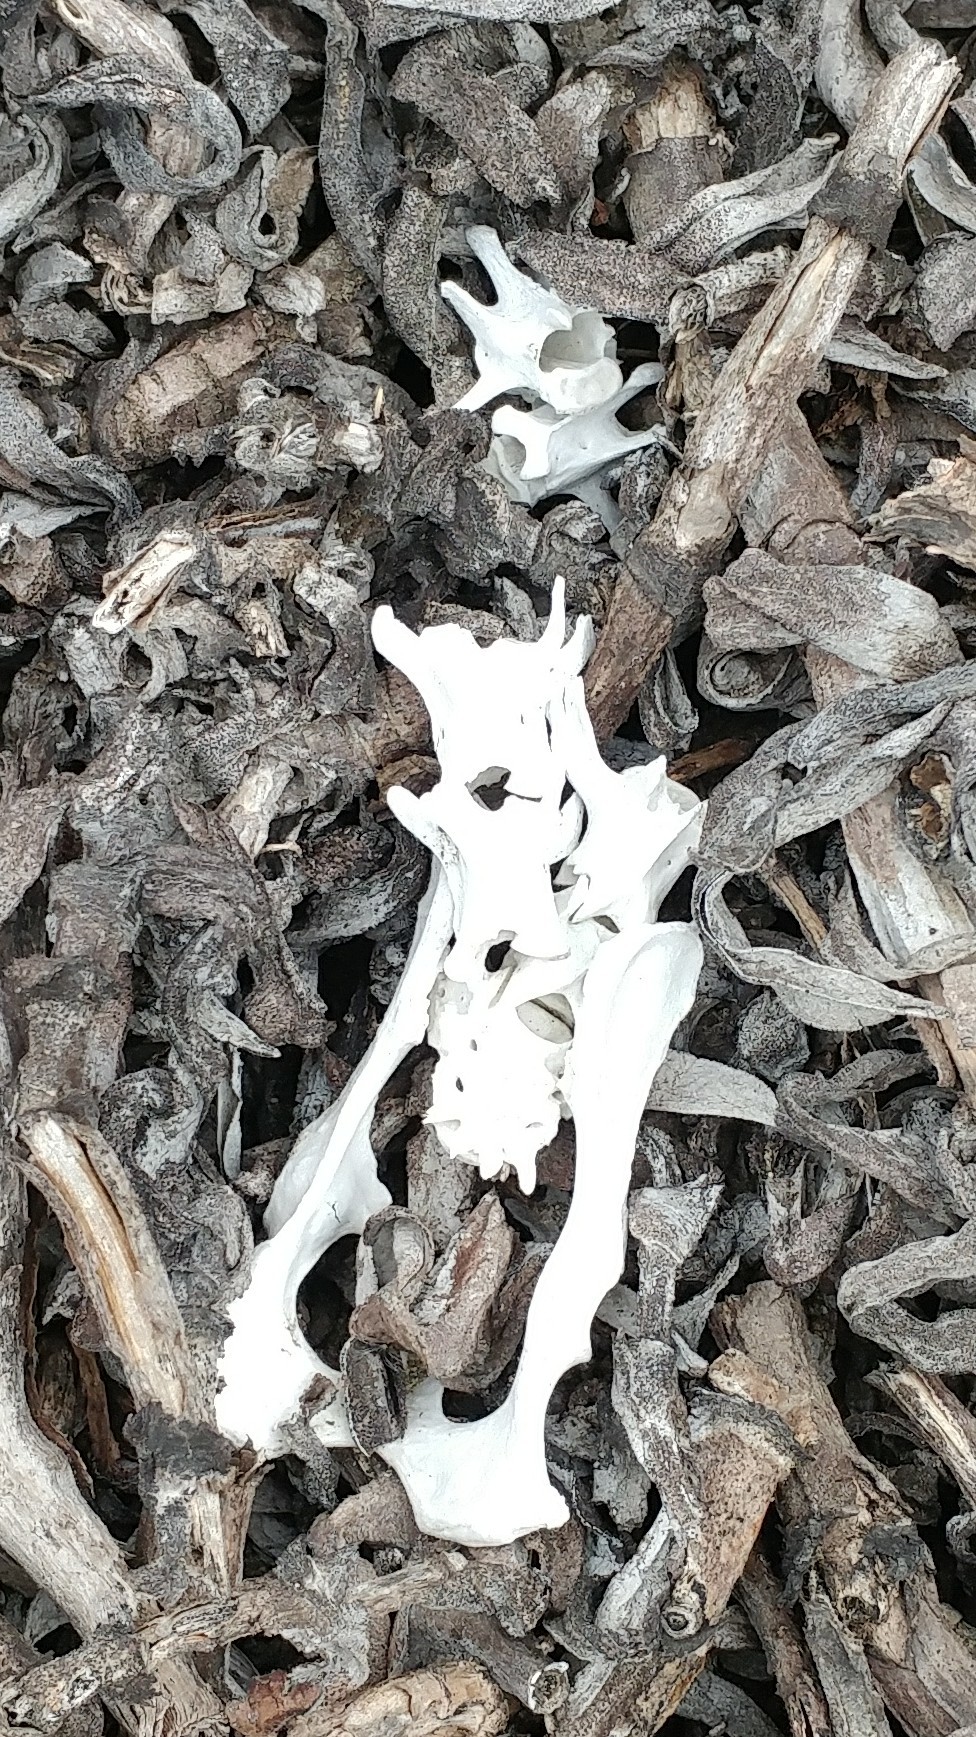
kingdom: Animalia
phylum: Chordata
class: Mammalia
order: Carnivora
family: Canidae
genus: Urocyon
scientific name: Urocyon littoralis
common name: Island gray fox
